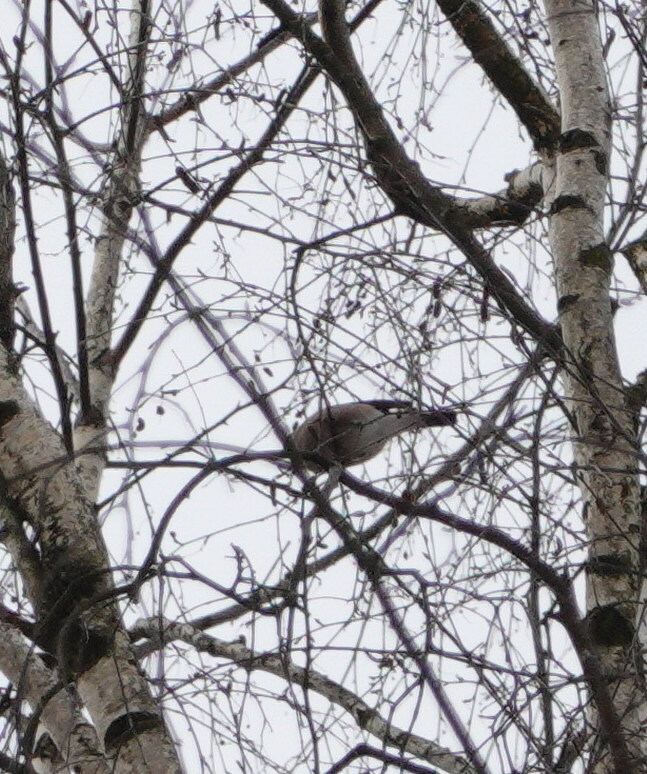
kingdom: Animalia
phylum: Chordata
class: Aves
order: Passeriformes
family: Fringillidae
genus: Pyrrhula
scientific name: Pyrrhula pyrrhula
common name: Eurasian bullfinch
